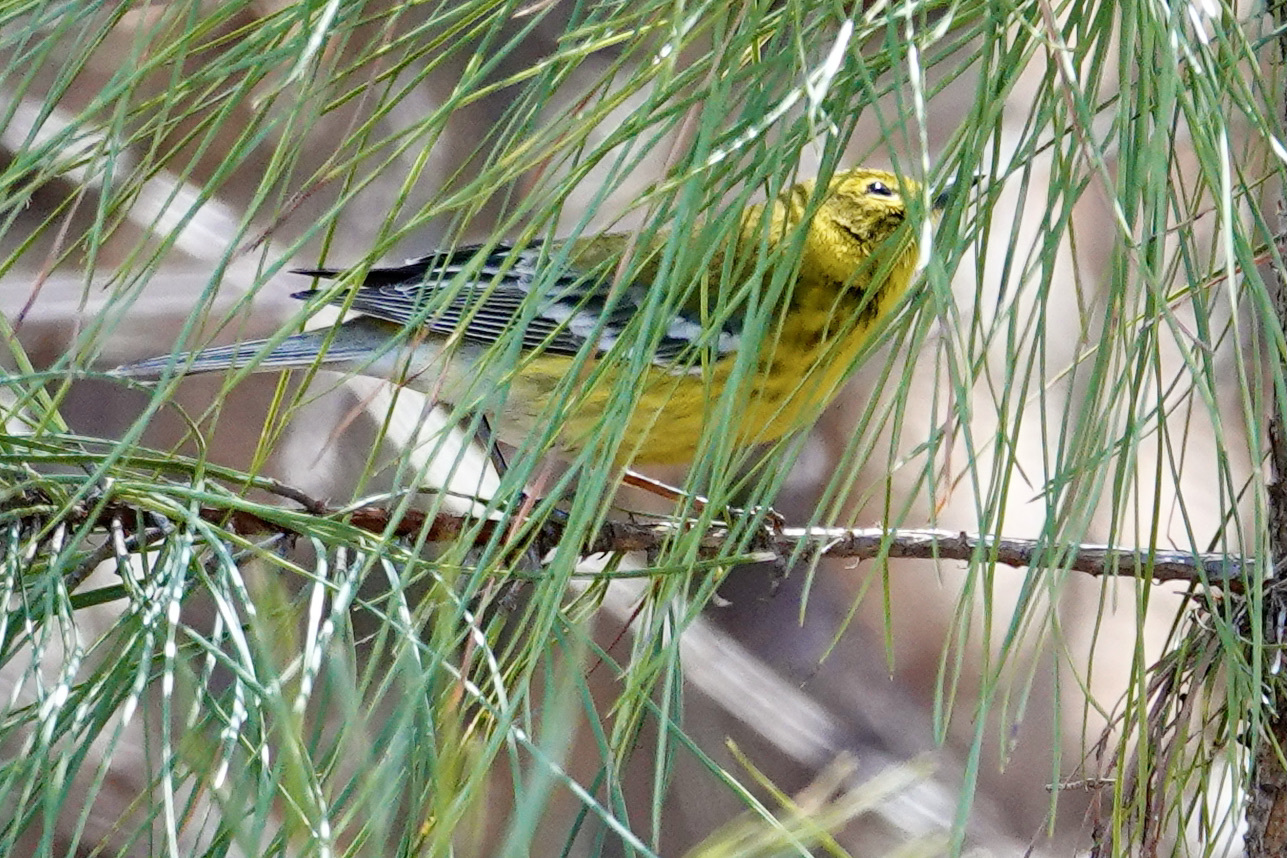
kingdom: Animalia
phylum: Chordata
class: Aves
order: Passeriformes
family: Parulidae
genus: Setophaga
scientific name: Setophaga pinus
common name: Pine warbler
